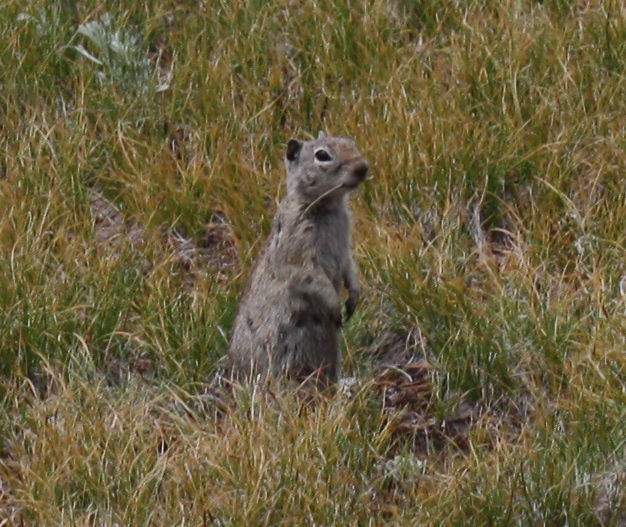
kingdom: Animalia
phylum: Chordata
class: Mammalia
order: Rodentia
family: Sciuridae
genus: Urocitellus
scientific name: Urocitellus beldingi
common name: Belding's ground squirrel
